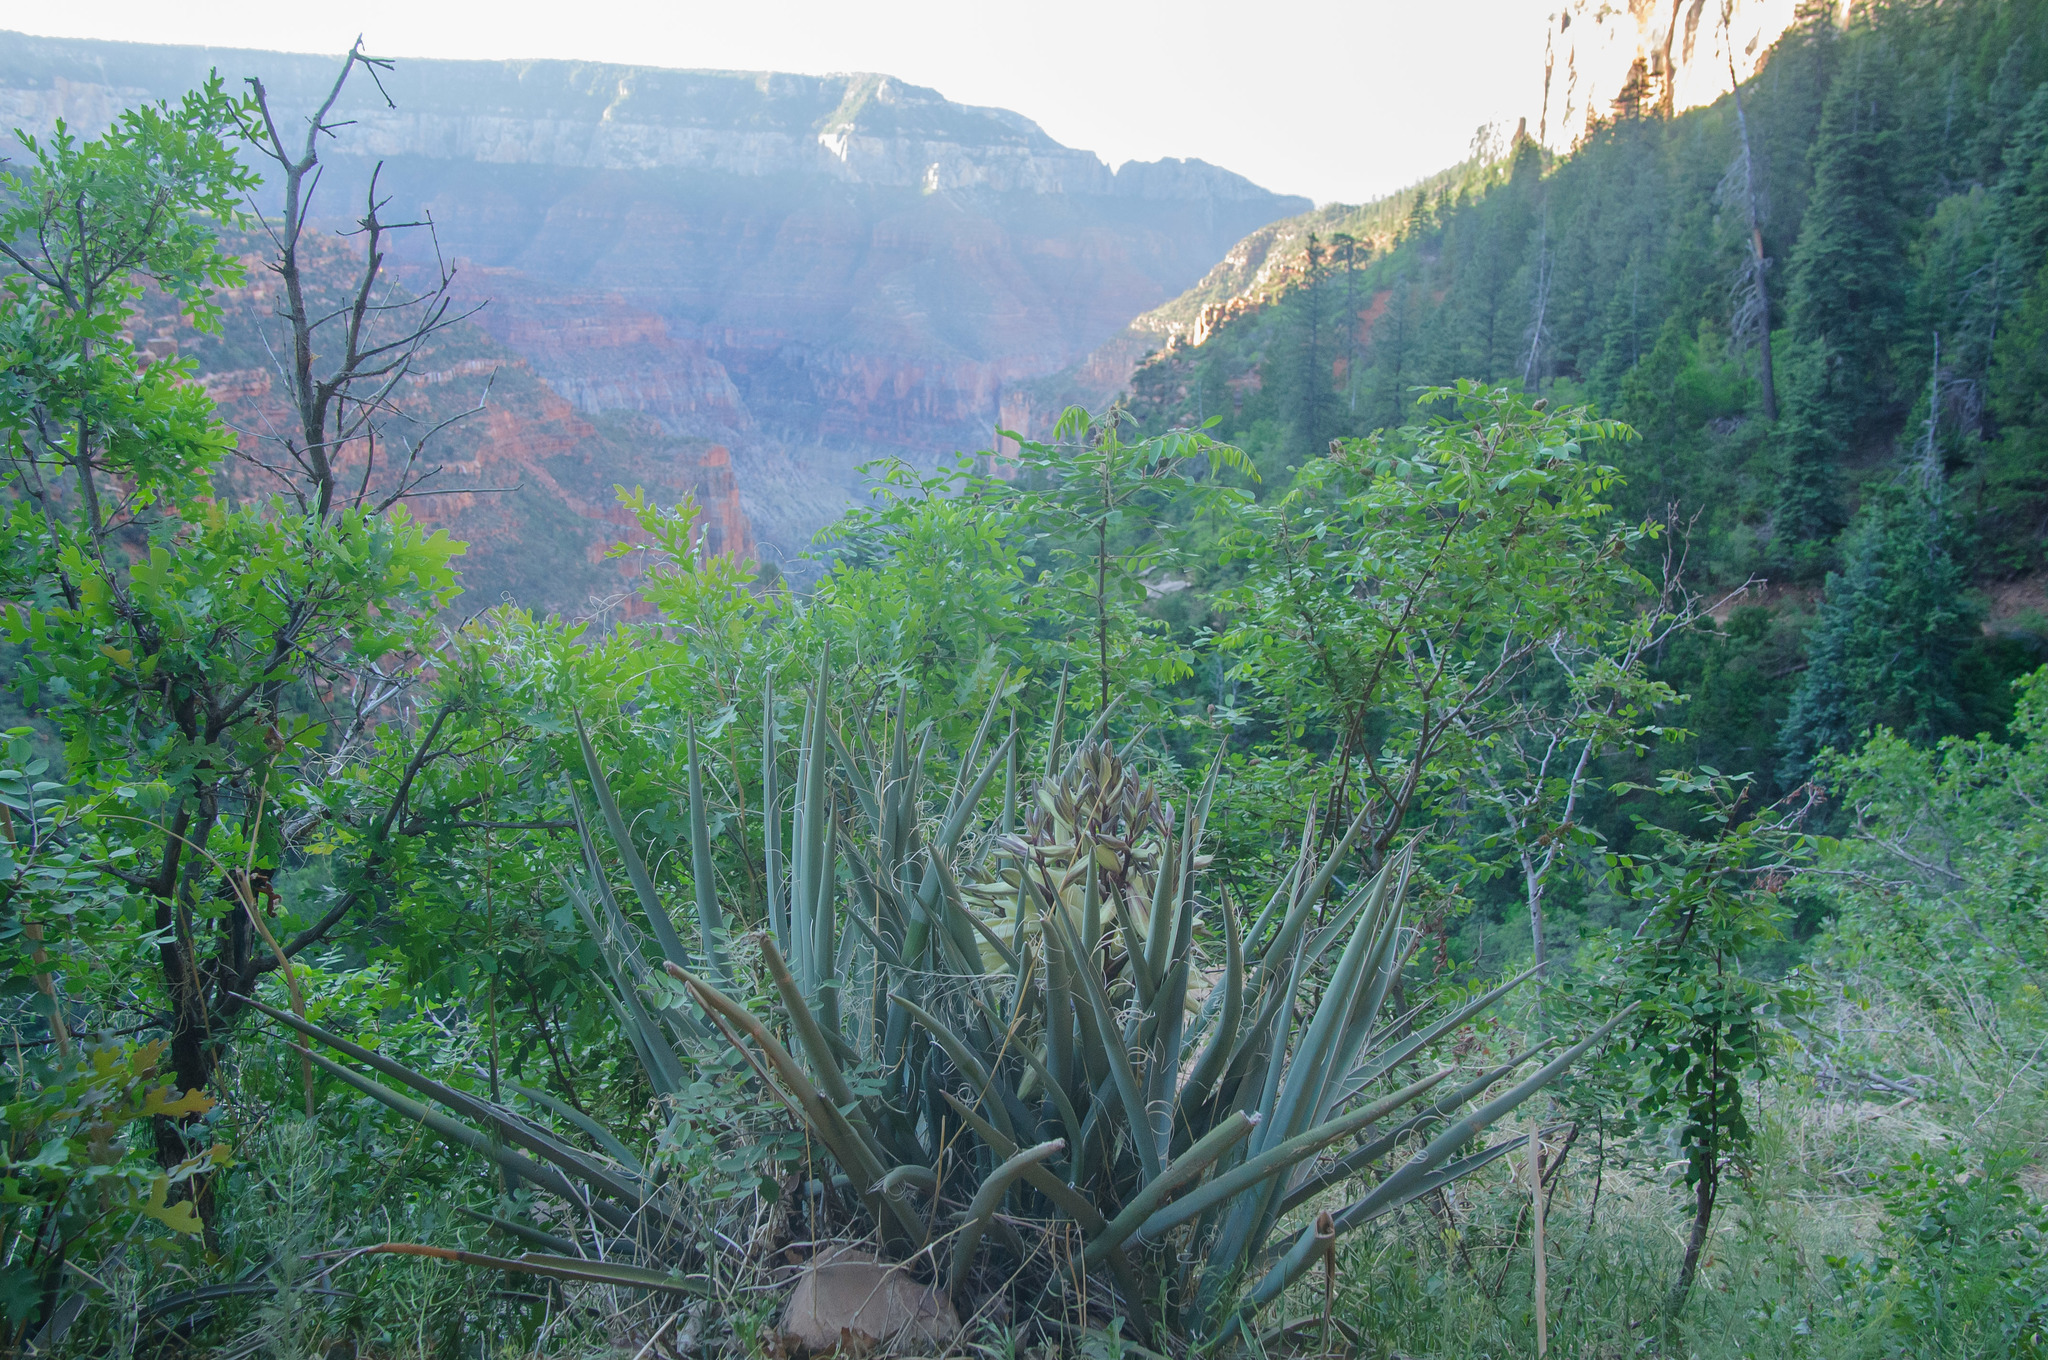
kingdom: Plantae
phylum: Tracheophyta
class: Liliopsida
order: Asparagales
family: Asparagaceae
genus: Yucca
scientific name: Yucca baccata
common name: Banana yucca
